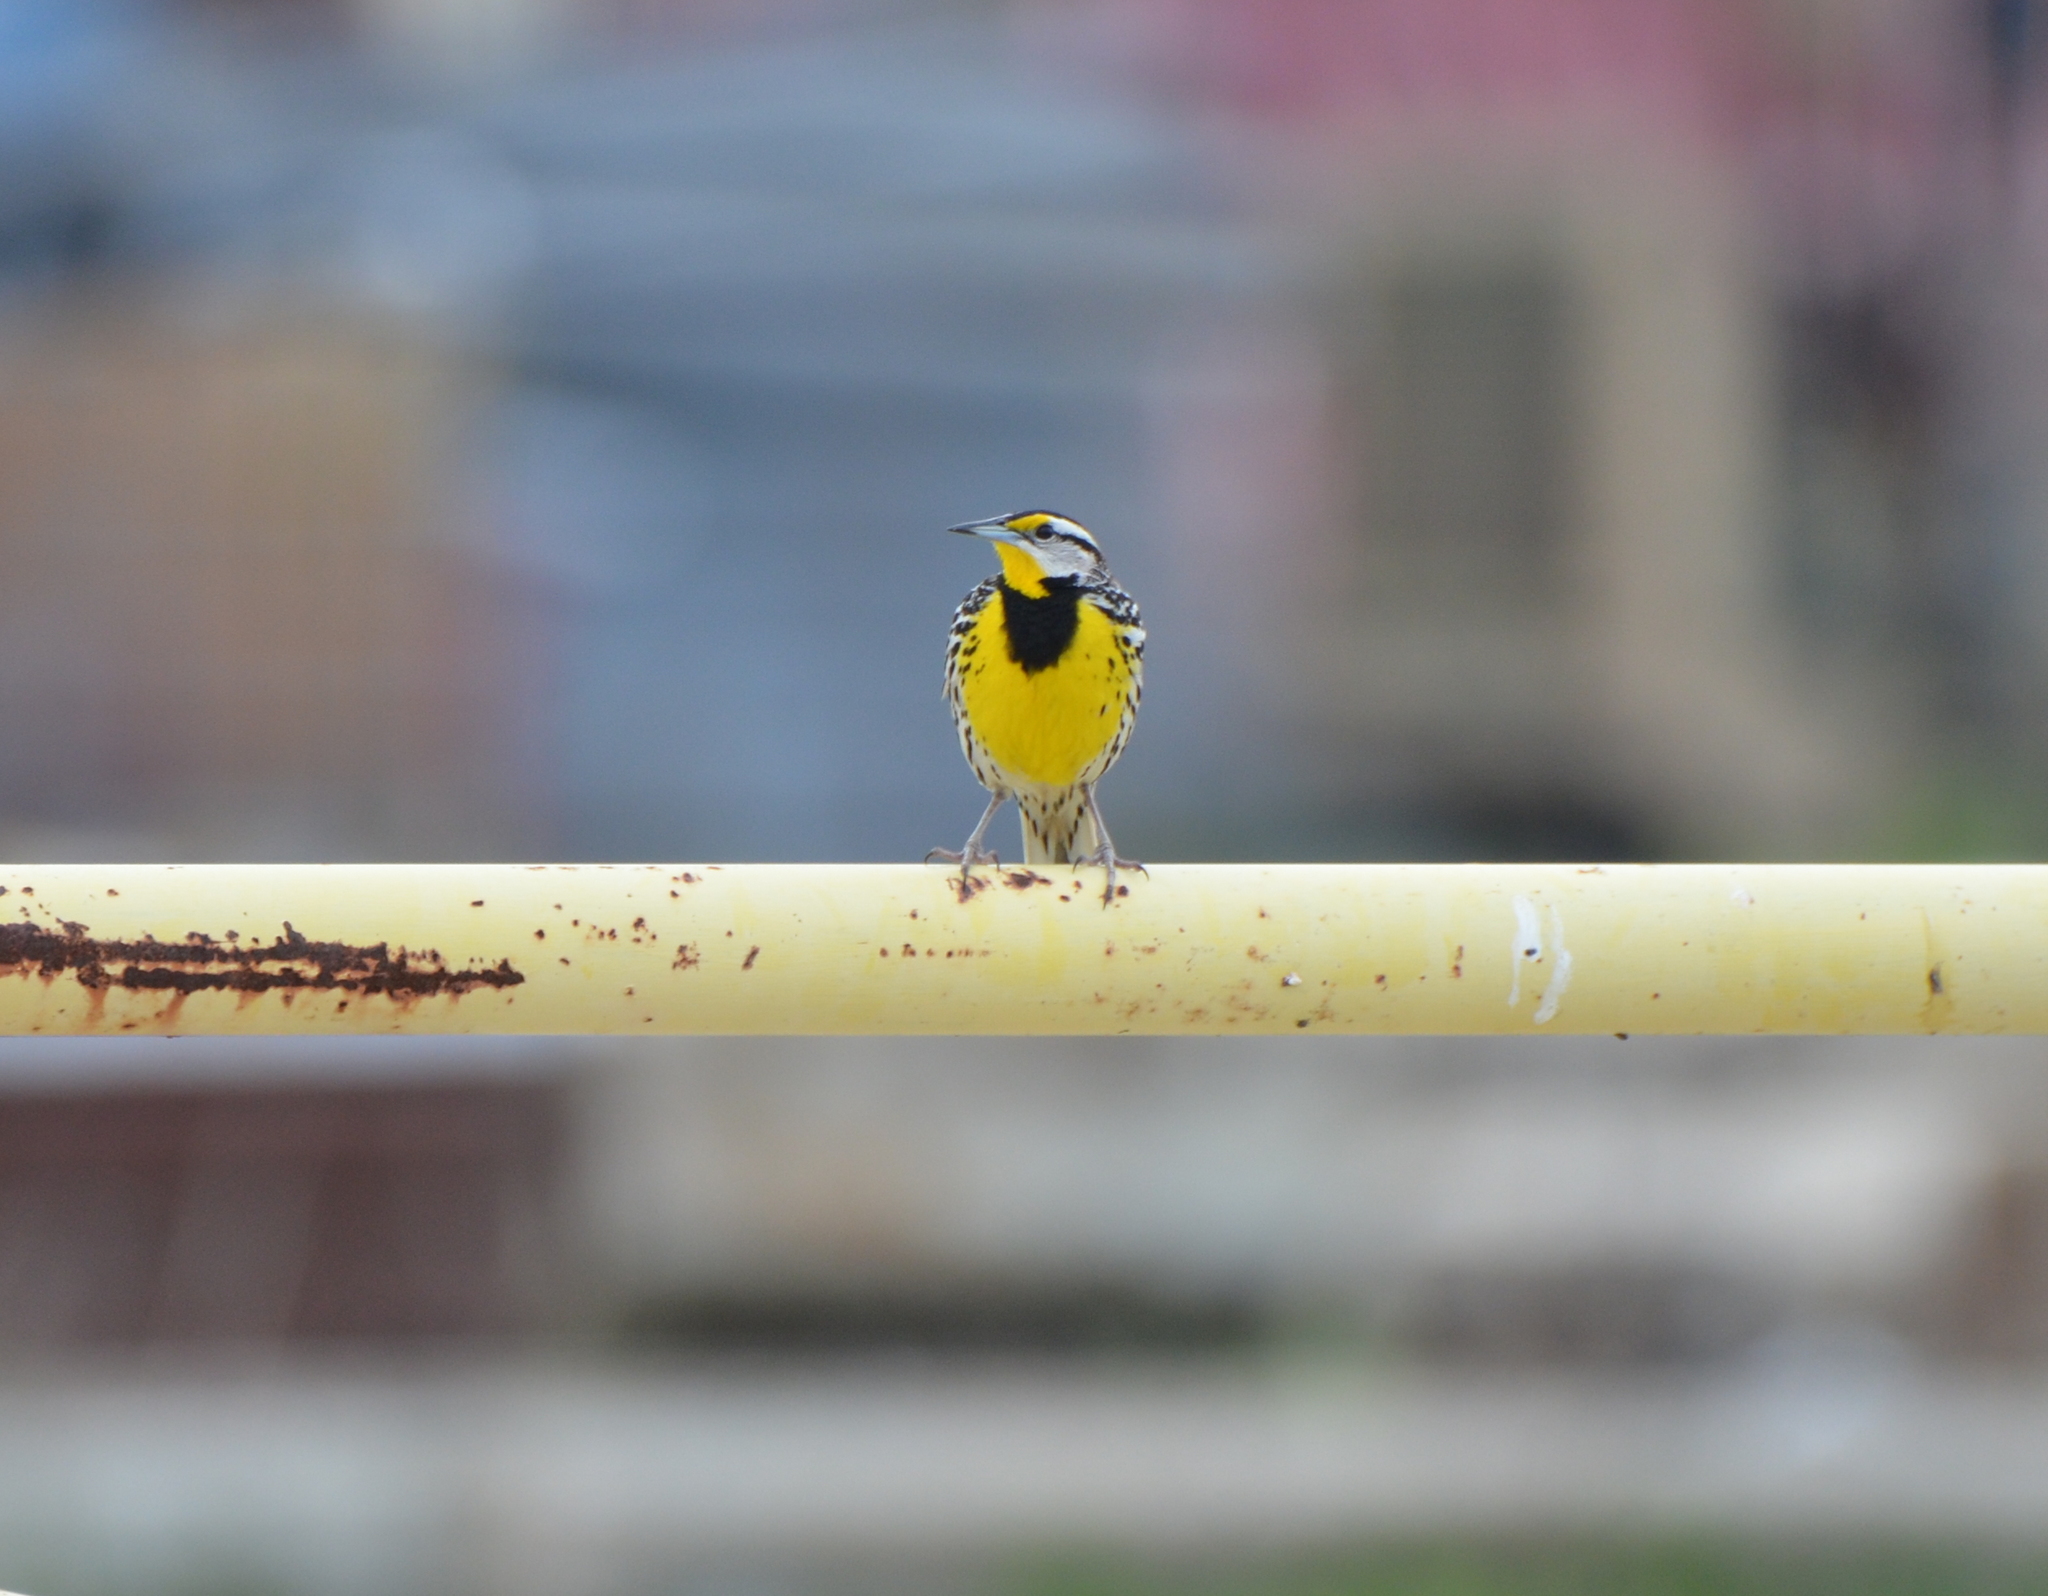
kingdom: Animalia
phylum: Chordata
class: Aves
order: Passeriformes
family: Icteridae
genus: Sturnella
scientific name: Sturnella magna
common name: Eastern meadowlark
